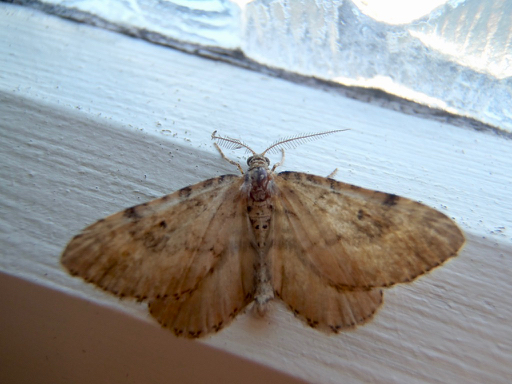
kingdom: Animalia
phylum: Arthropoda
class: Insecta
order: Lepidoptera
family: Geometridae
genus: Asaphodes
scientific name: Asaphodes aegrota
